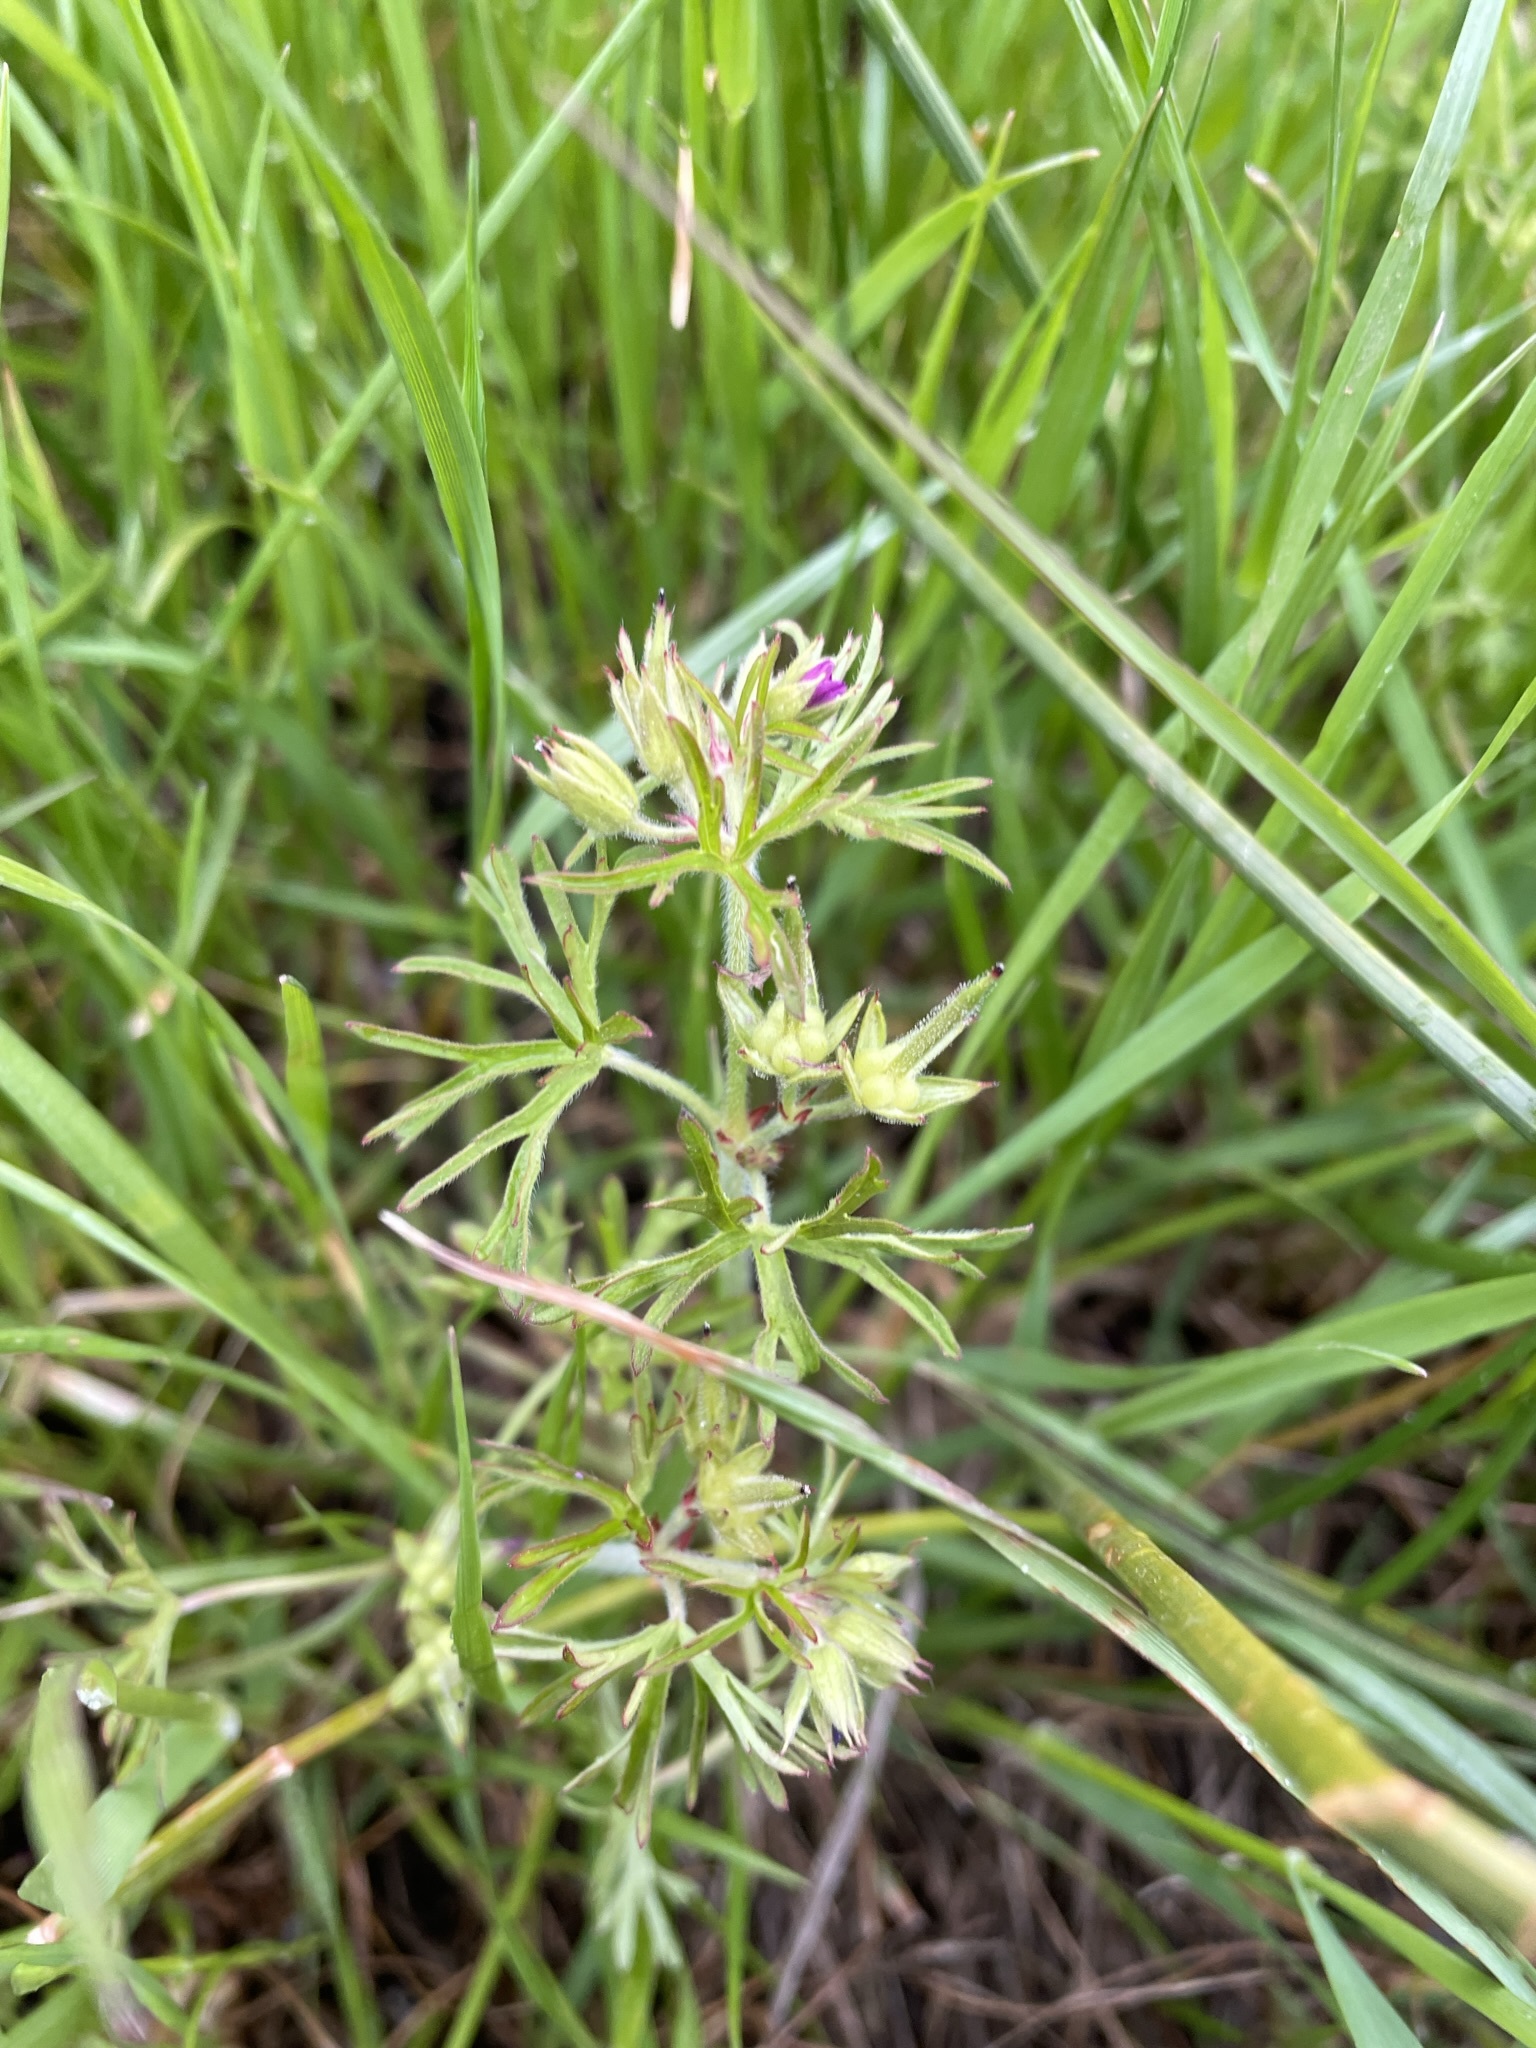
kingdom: Plantae
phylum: Tracheophyta
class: Magnoliopsida
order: Geraniales
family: Geraniaceae
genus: Geranium
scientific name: Geranium dissectum
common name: Cut-leaved crane's-bill
